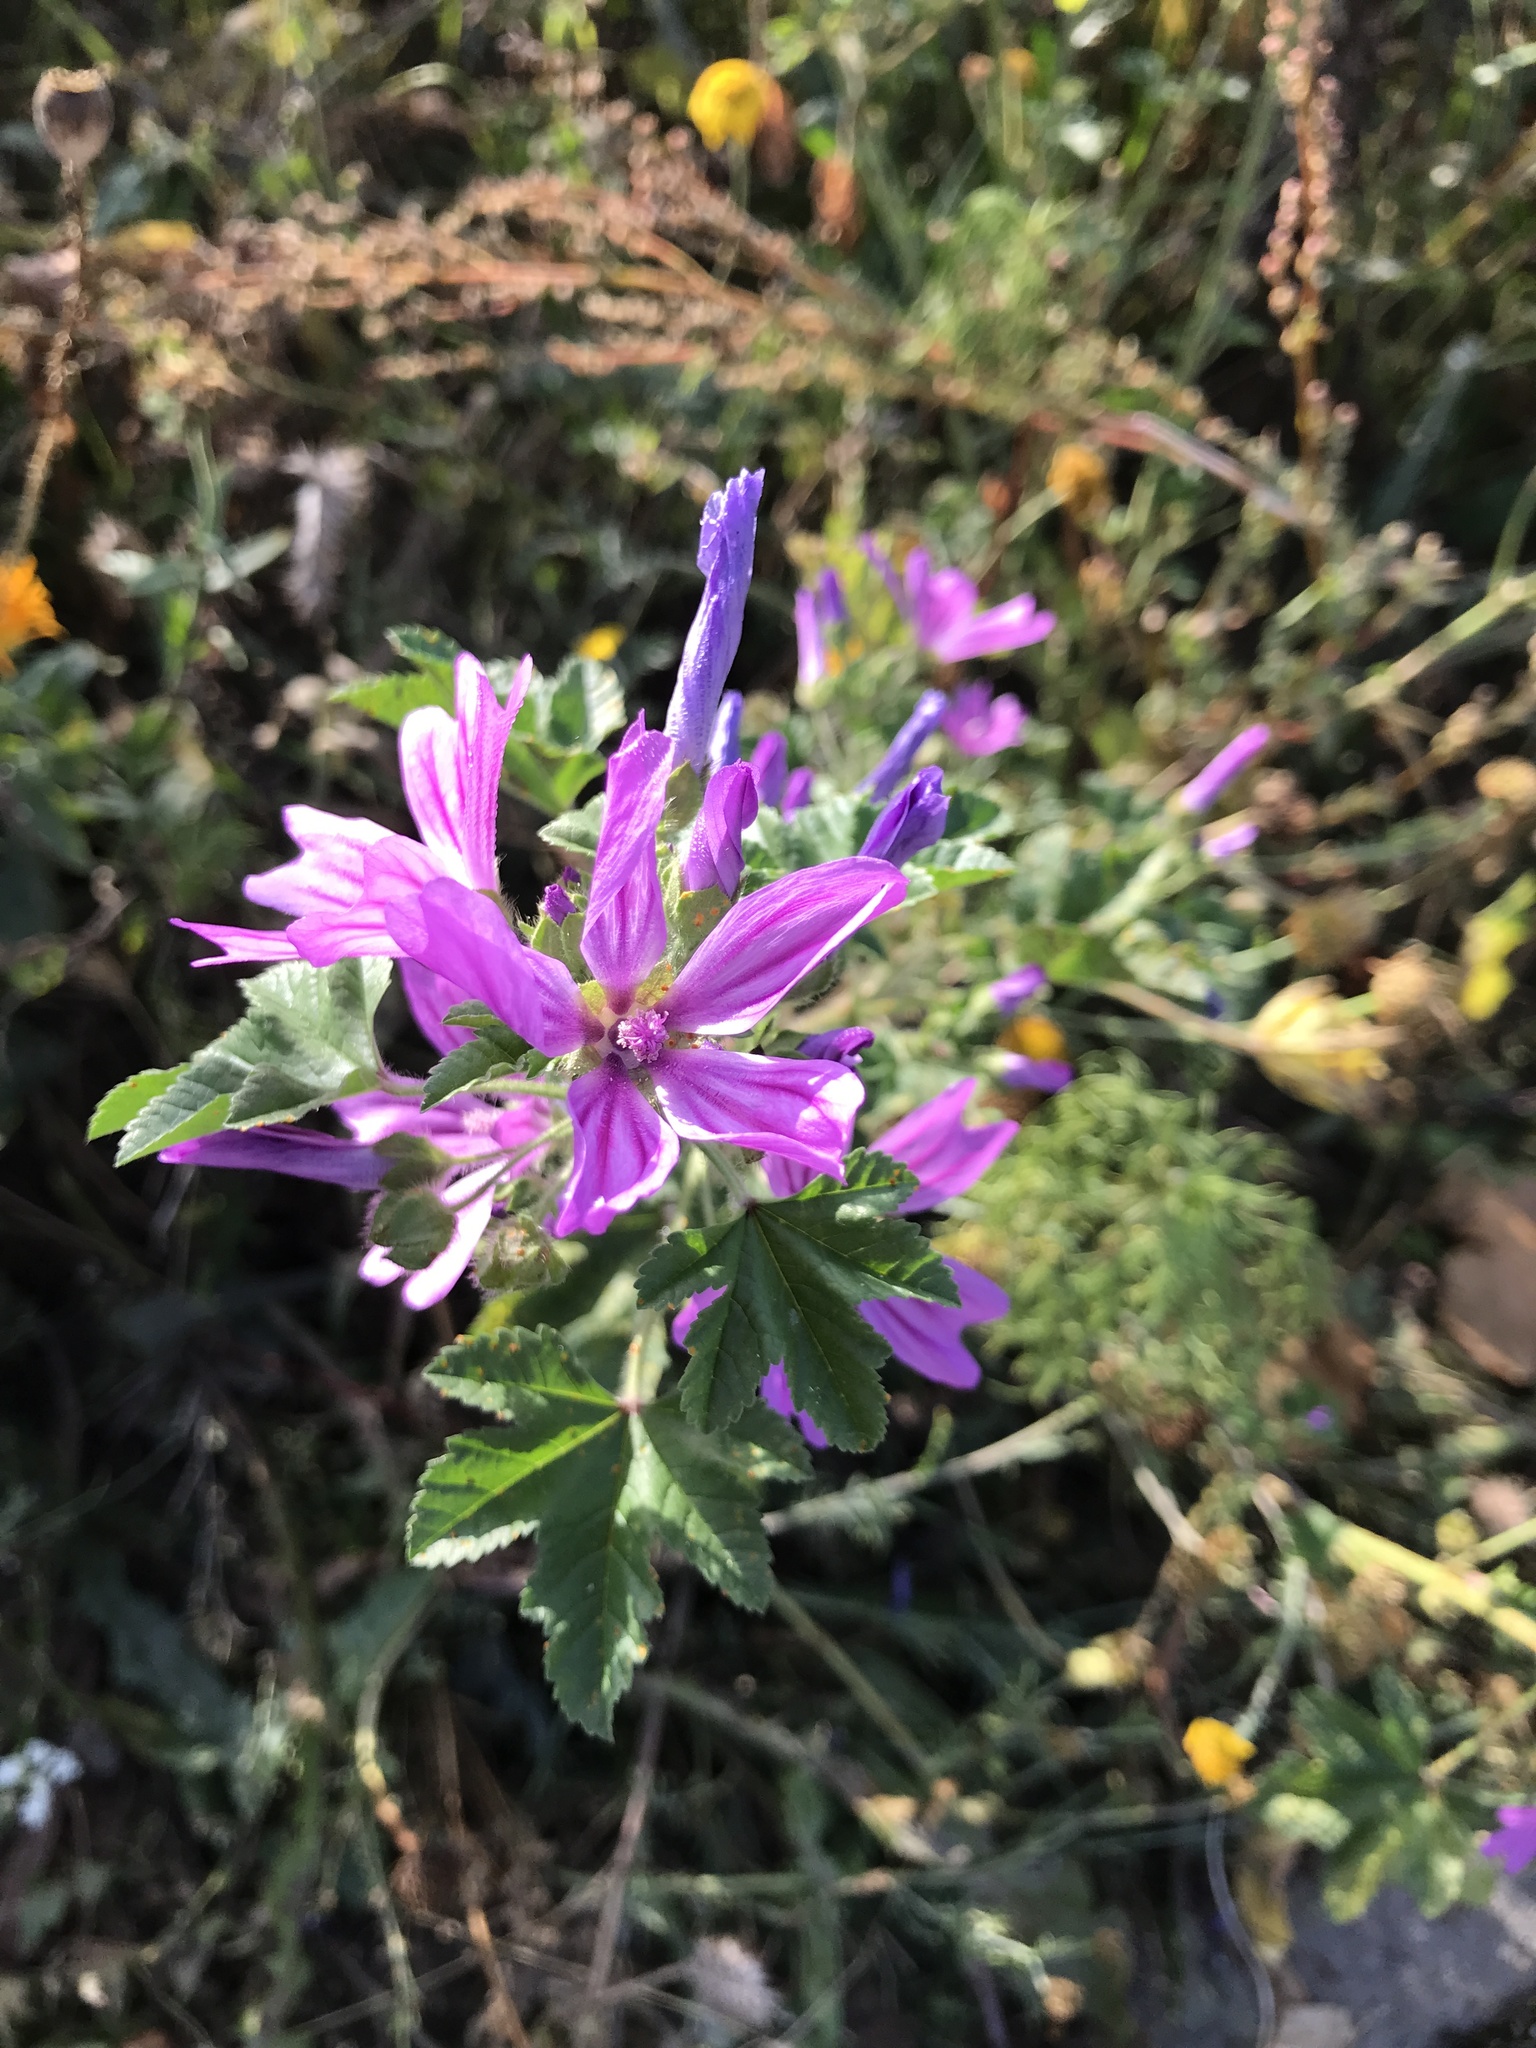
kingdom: Plantae
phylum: Tracheophyta
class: Magnoliopsida
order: Malvales
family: Malvaceae
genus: Malva
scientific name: Malva sylvestris
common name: Common mallow
